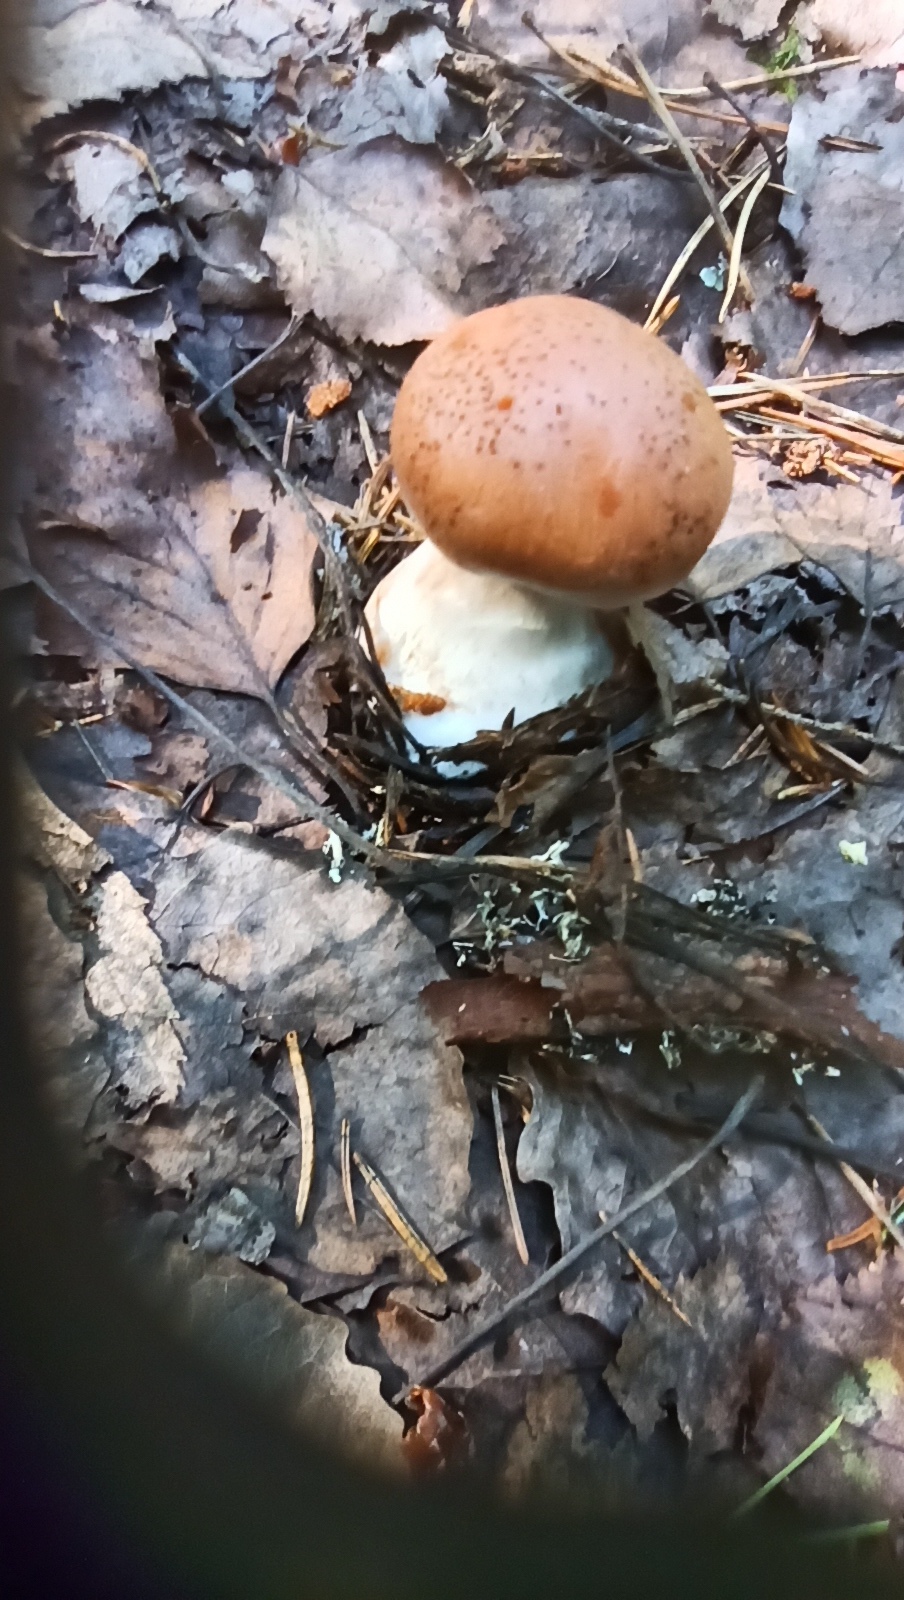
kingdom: Fungi
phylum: Basidiomycota
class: Agaricomycetes
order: Agaricales
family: Tricholomataceae
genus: Leucocortinarius
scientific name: Leucocortinarius bulbiger
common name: White webcap
